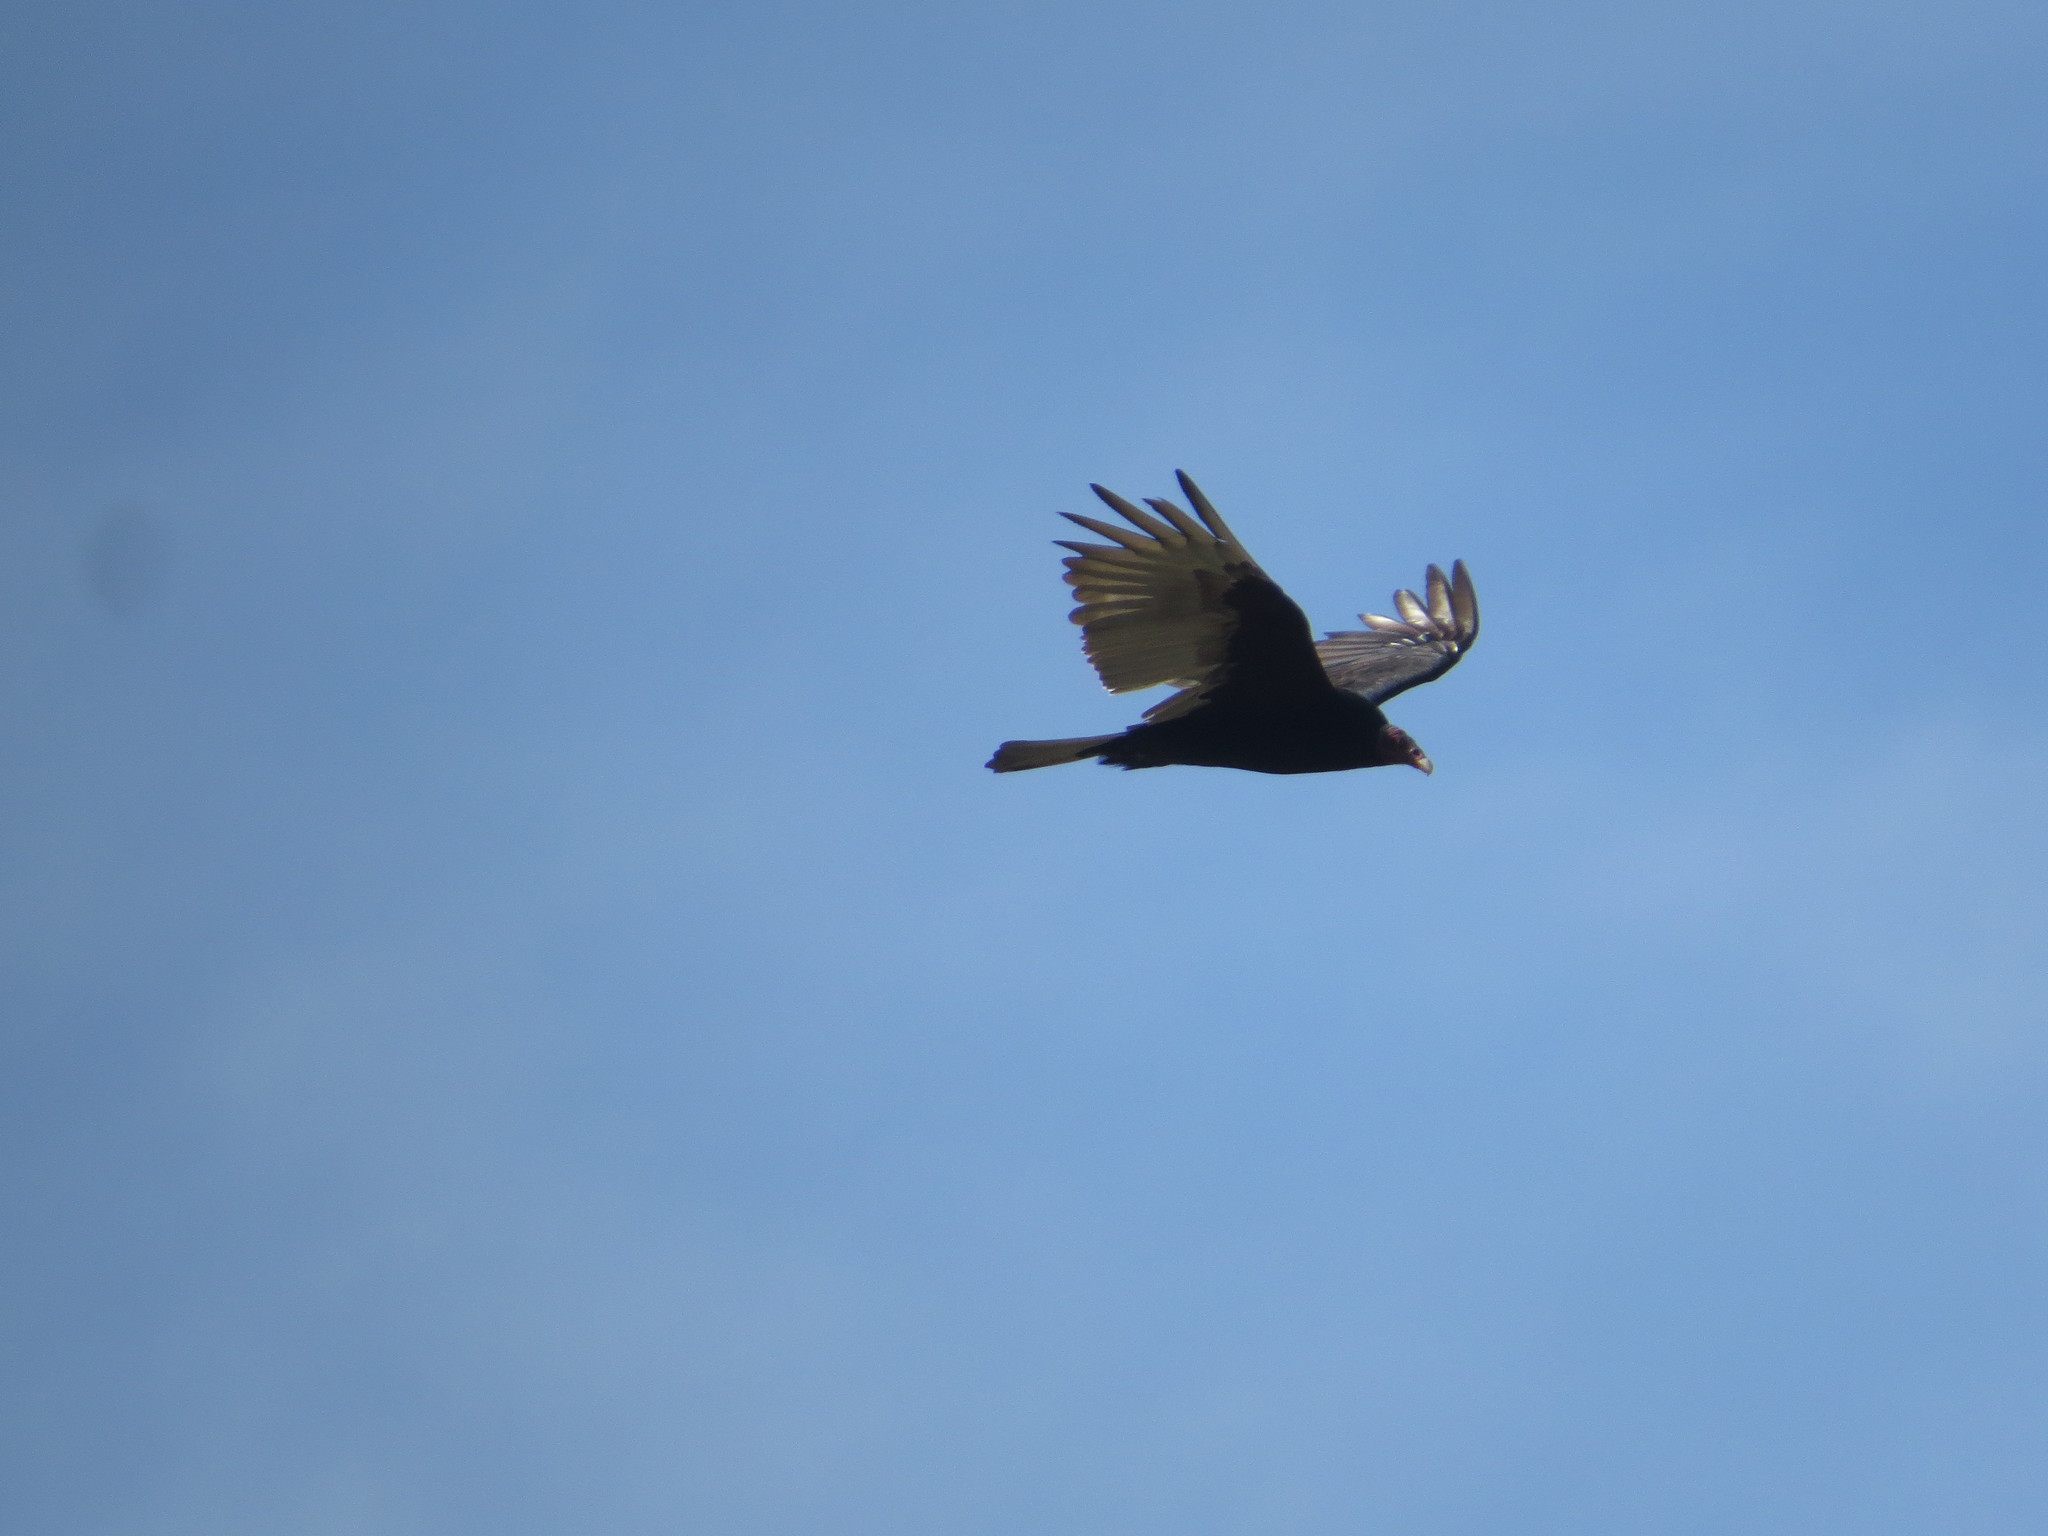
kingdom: Animalia
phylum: Chordata
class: Aves
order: Accipitriformes
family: Cathartidae
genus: Cathartes
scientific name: Cathartes aura
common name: Turkey vulture
